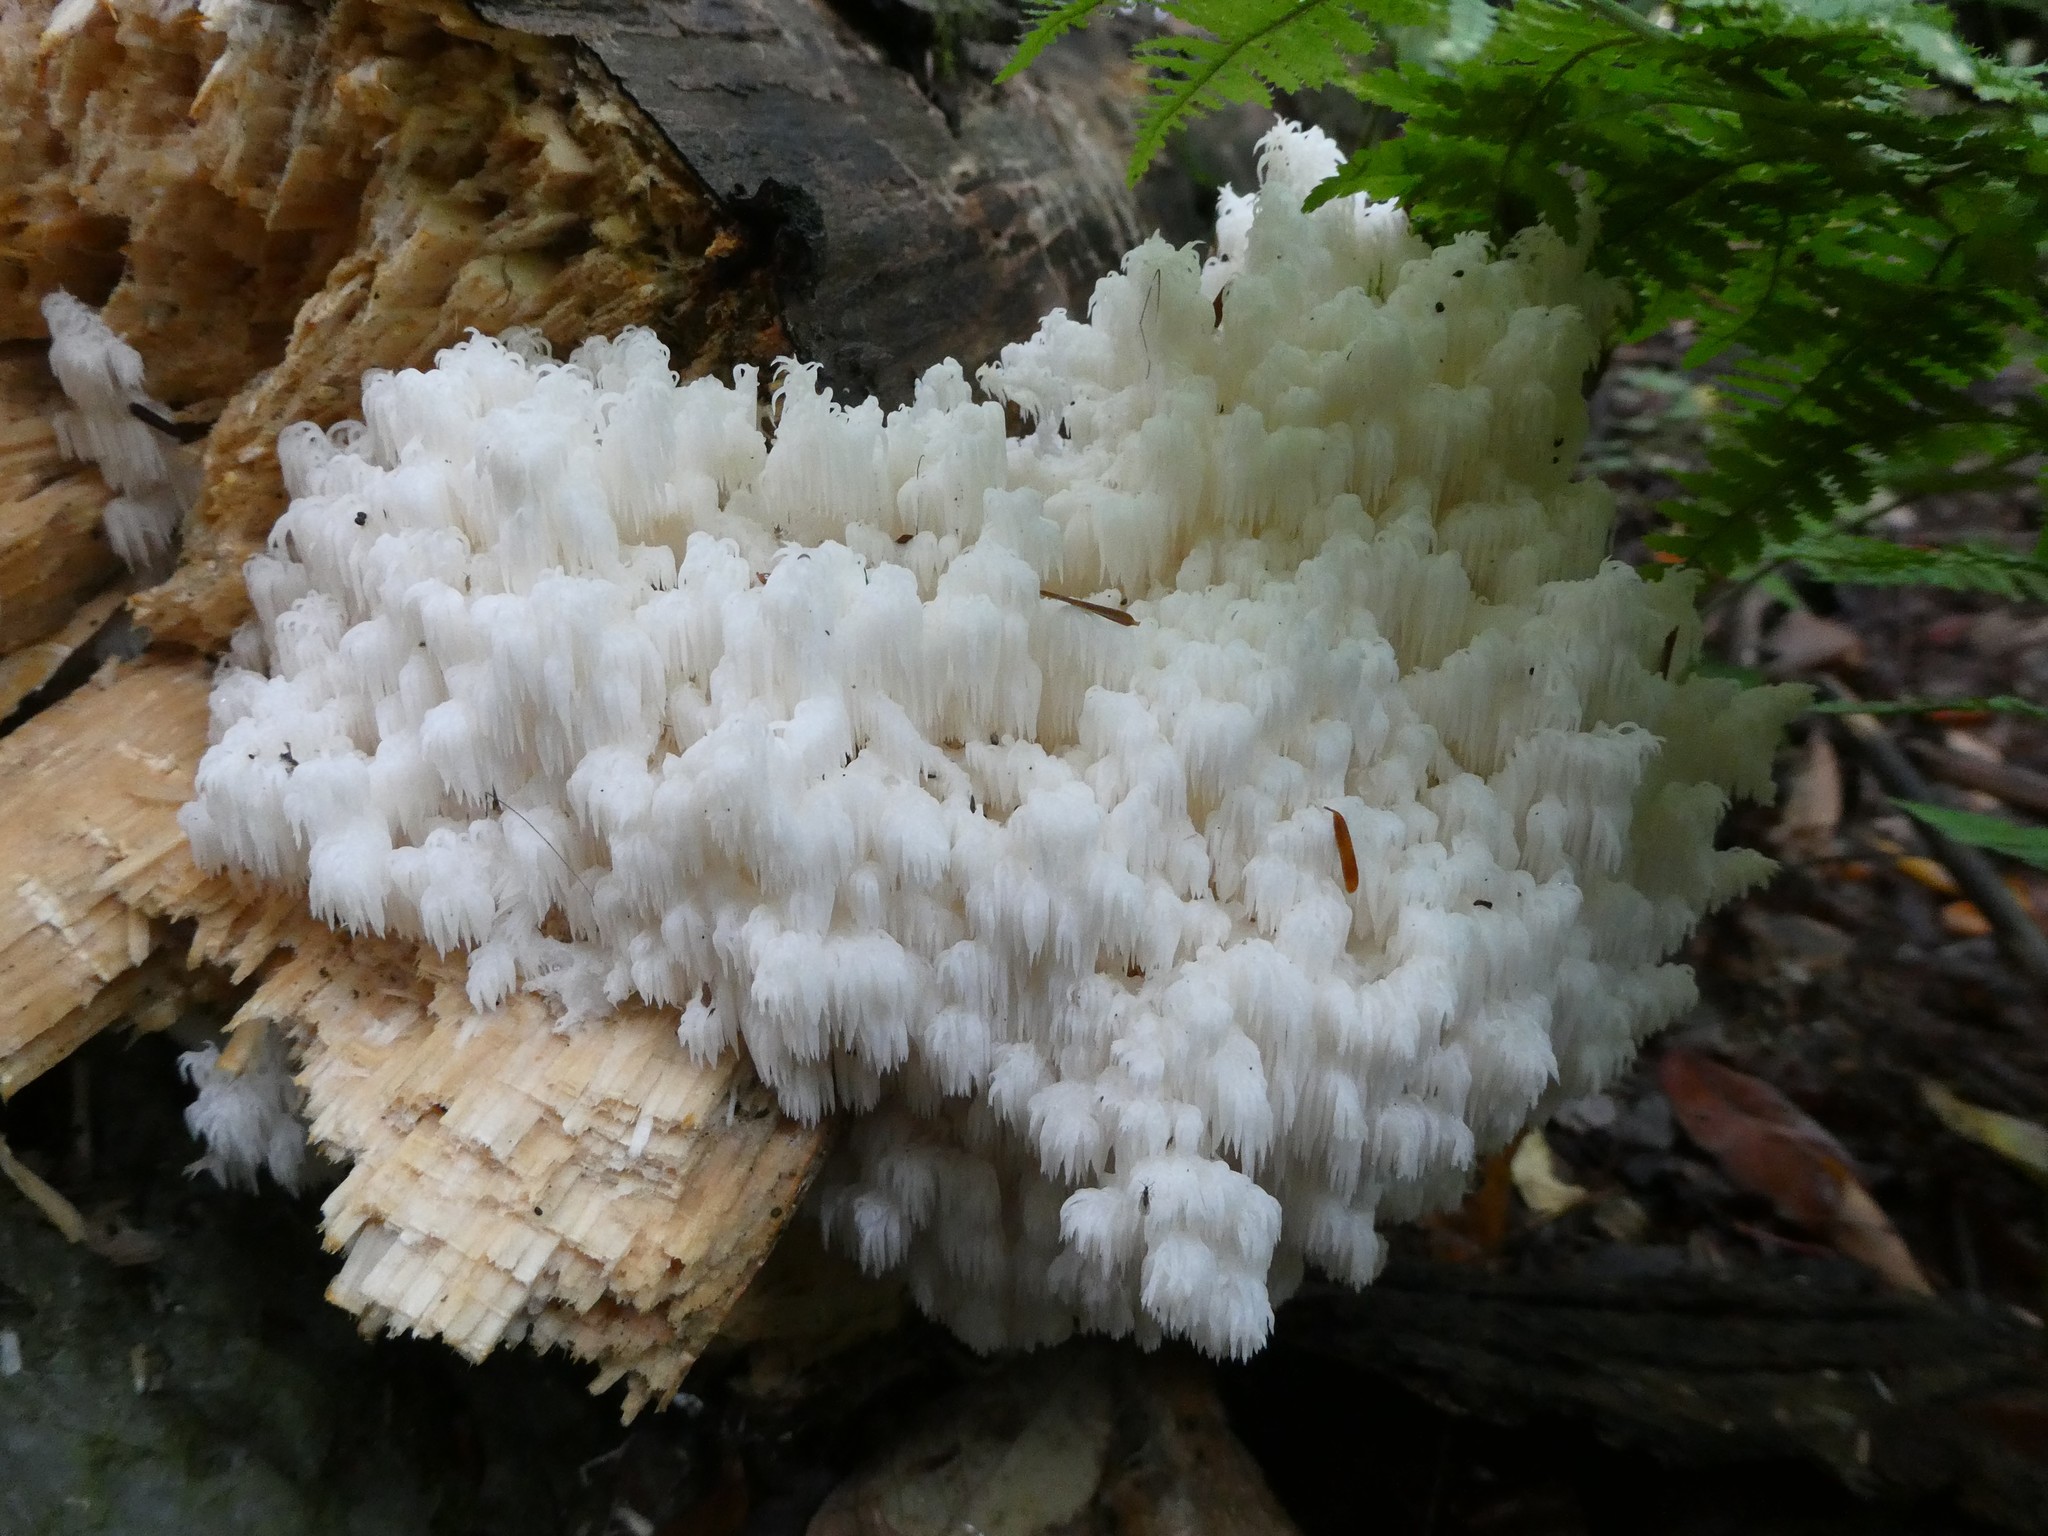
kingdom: Fungi
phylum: Basidiomycota
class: Agaricomycetes
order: Russulales
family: Hericiaceae
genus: Hericium
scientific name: Hericium coralloides
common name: Coral tooth
